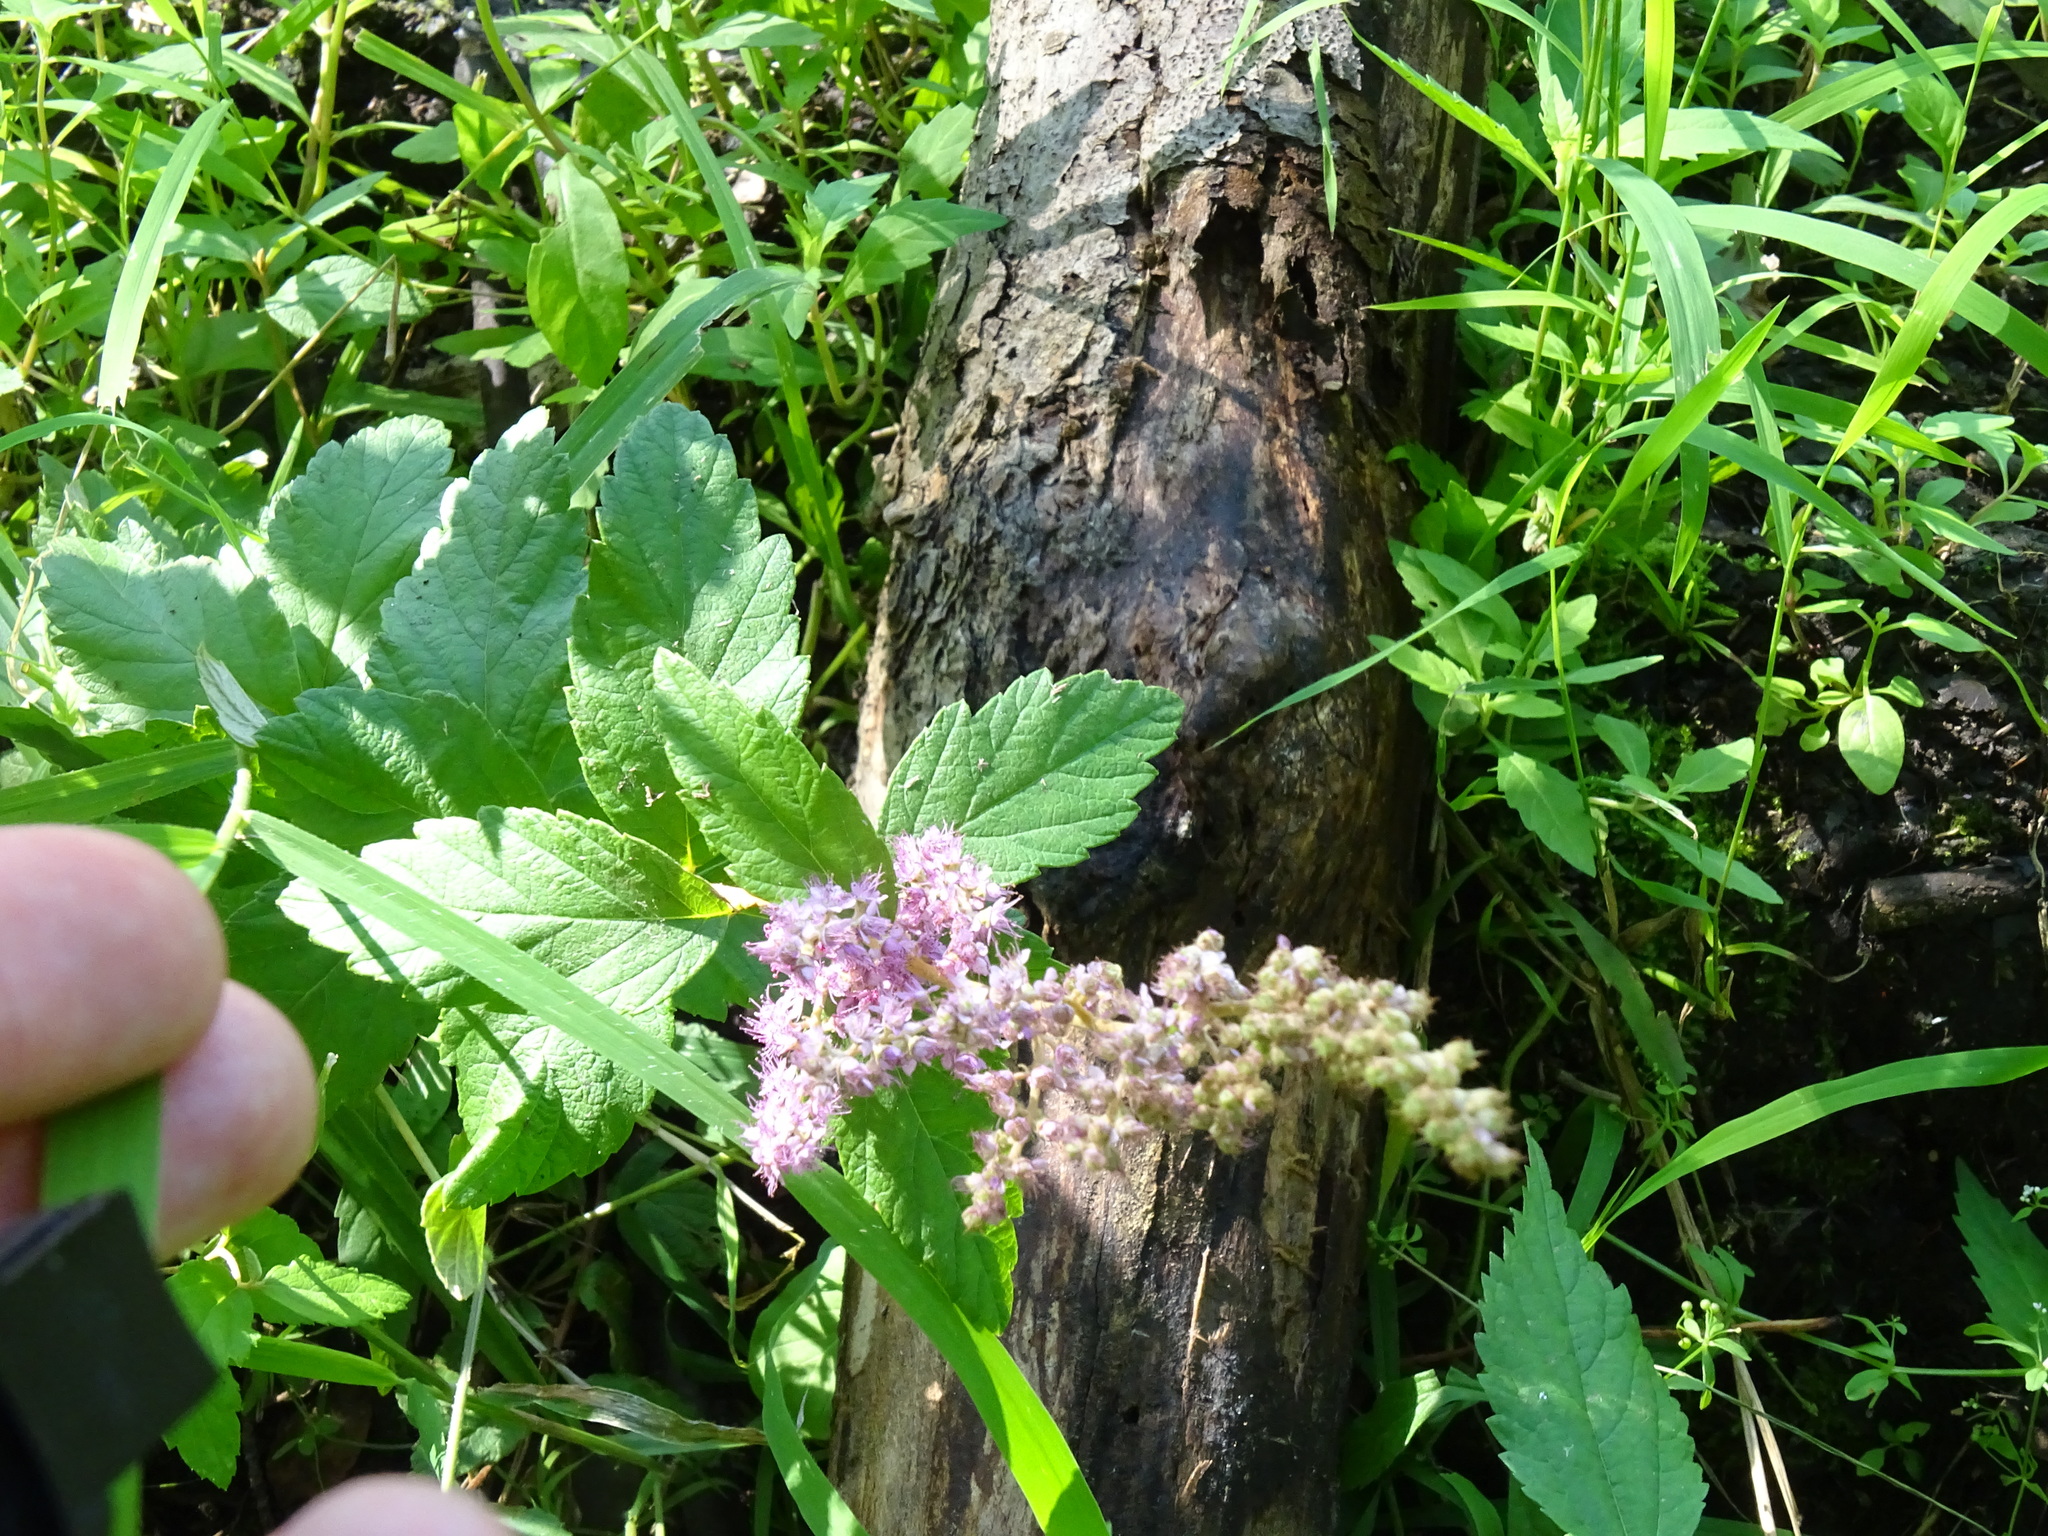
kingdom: Plantae
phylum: Tracheophyta
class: Magnoliopsida
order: Rosales
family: Rosaceae
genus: Spiraea
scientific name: Spiraea tomentosa
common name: Hardhack
